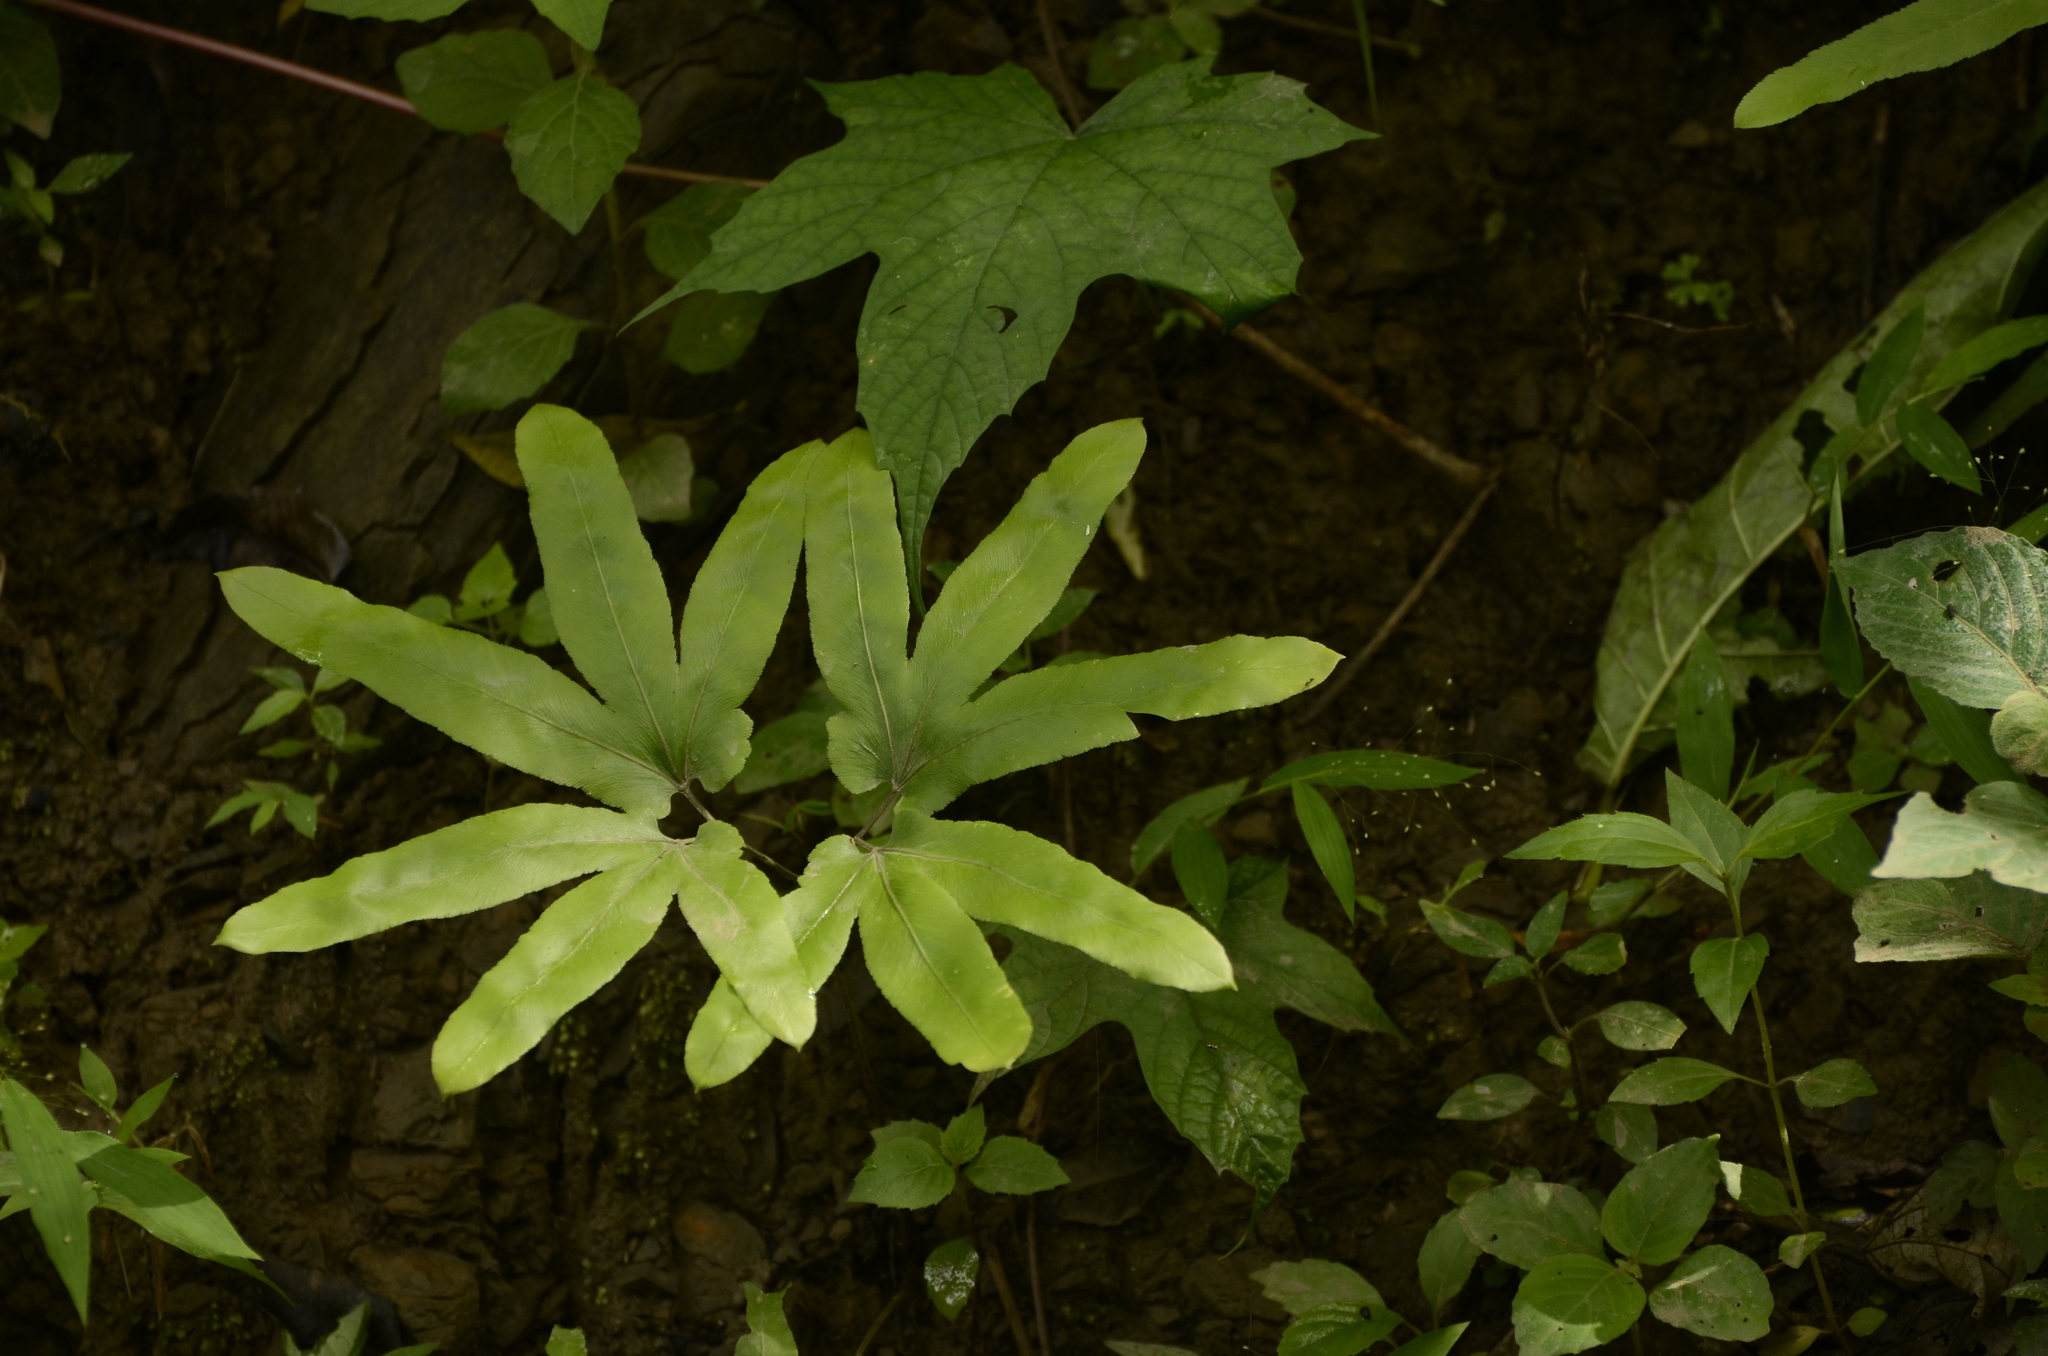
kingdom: Plantae
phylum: Tracheophyta
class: Polypodiopsida
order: Schizaeales
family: Lygodiaceae
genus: Lygodium
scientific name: Lygodium flexuosum
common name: Maidenhair creeper
